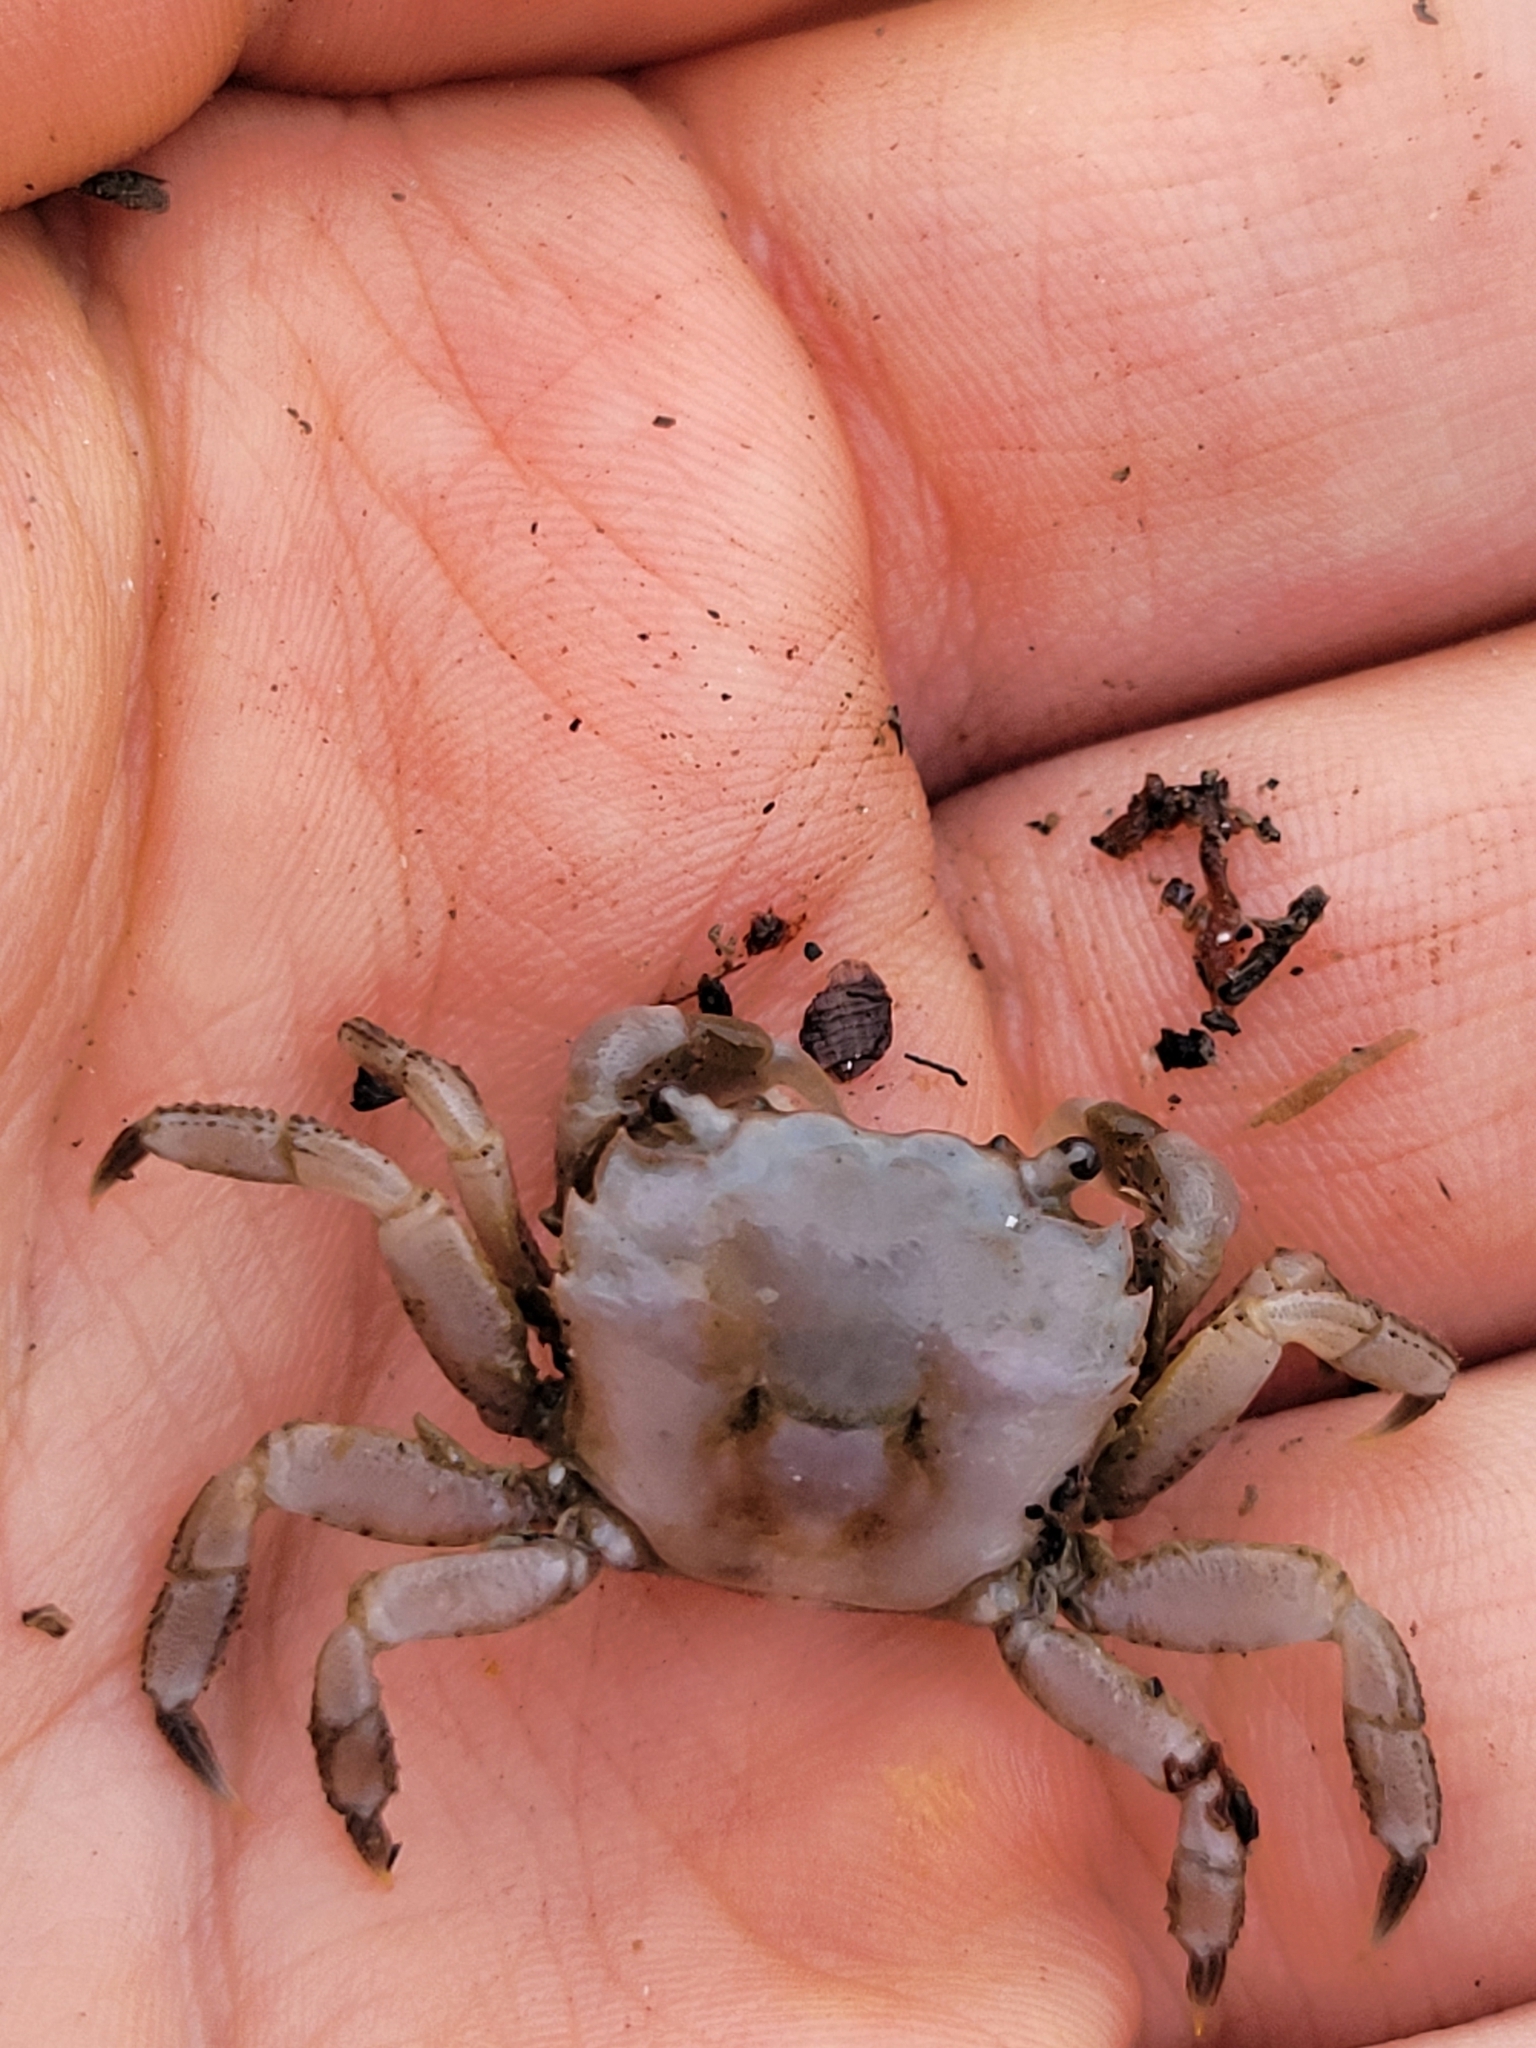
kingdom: Animalia
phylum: Arthropoda
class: Malacostraca
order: Decapoda
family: Varunidae
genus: Hemigrapsus
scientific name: Hemigrapsus oregonensis
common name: Yellow shore crab
